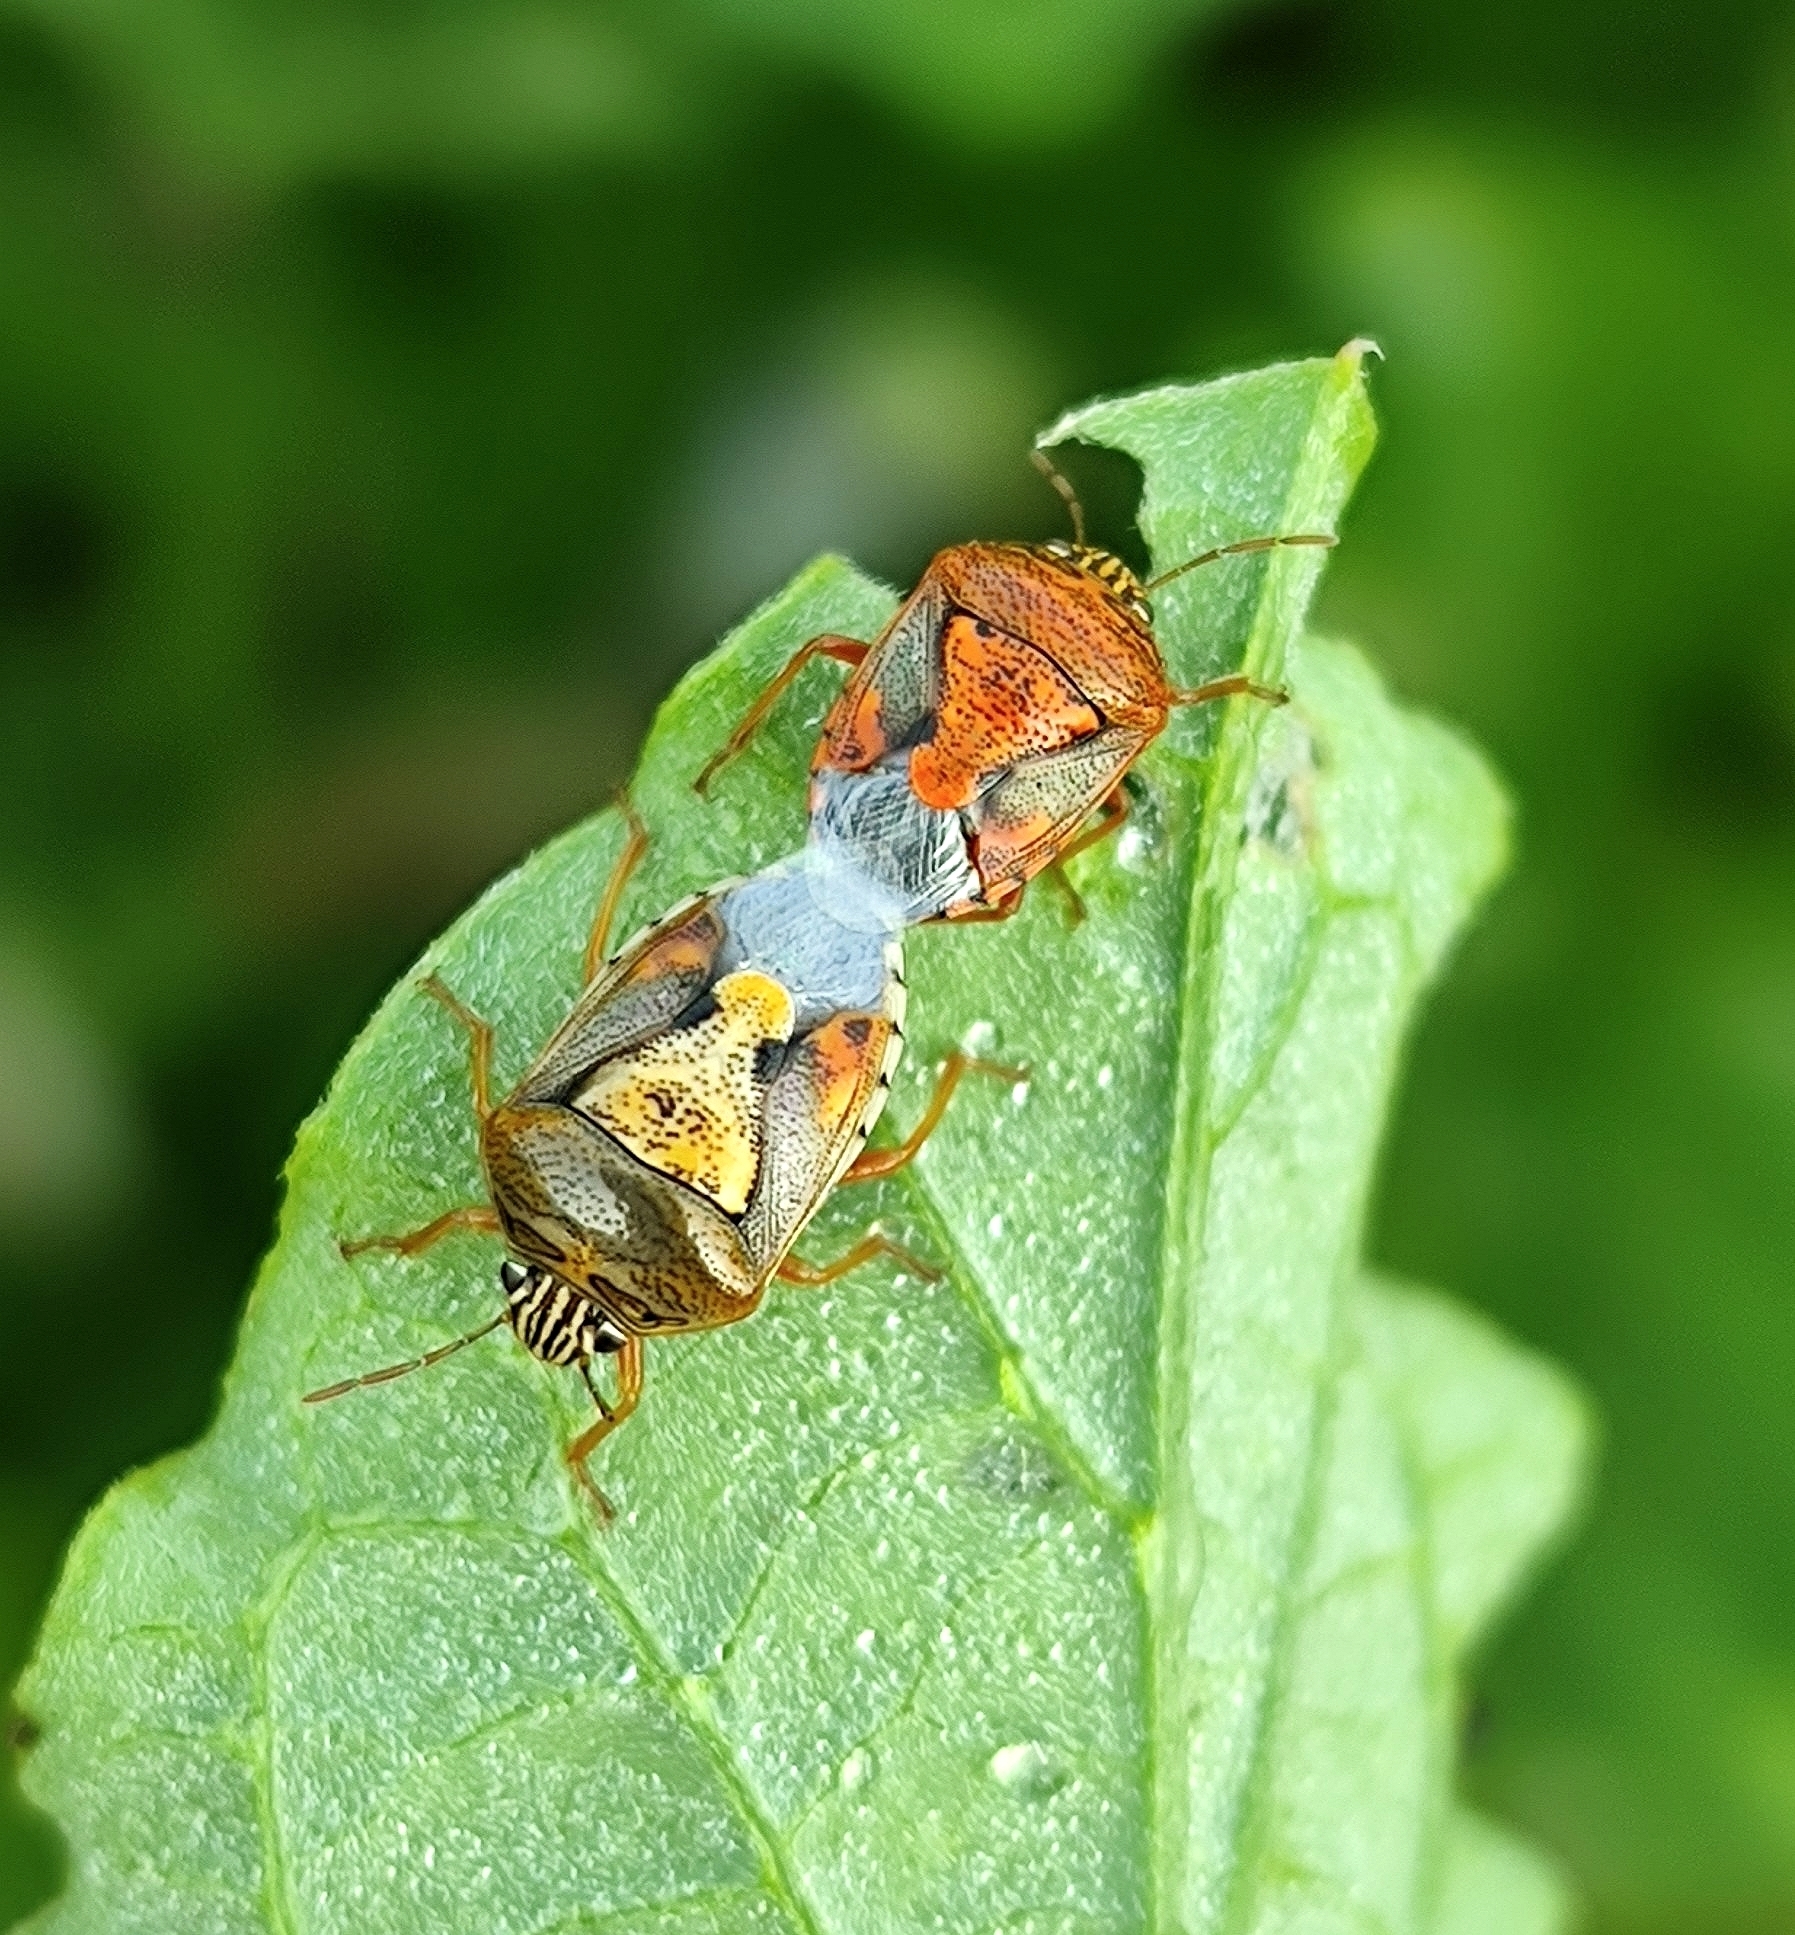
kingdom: Animalia
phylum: Arthropoda
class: Insecta
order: Hemiptera
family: Pentatomidae
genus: Menida
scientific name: Menida versicolor
